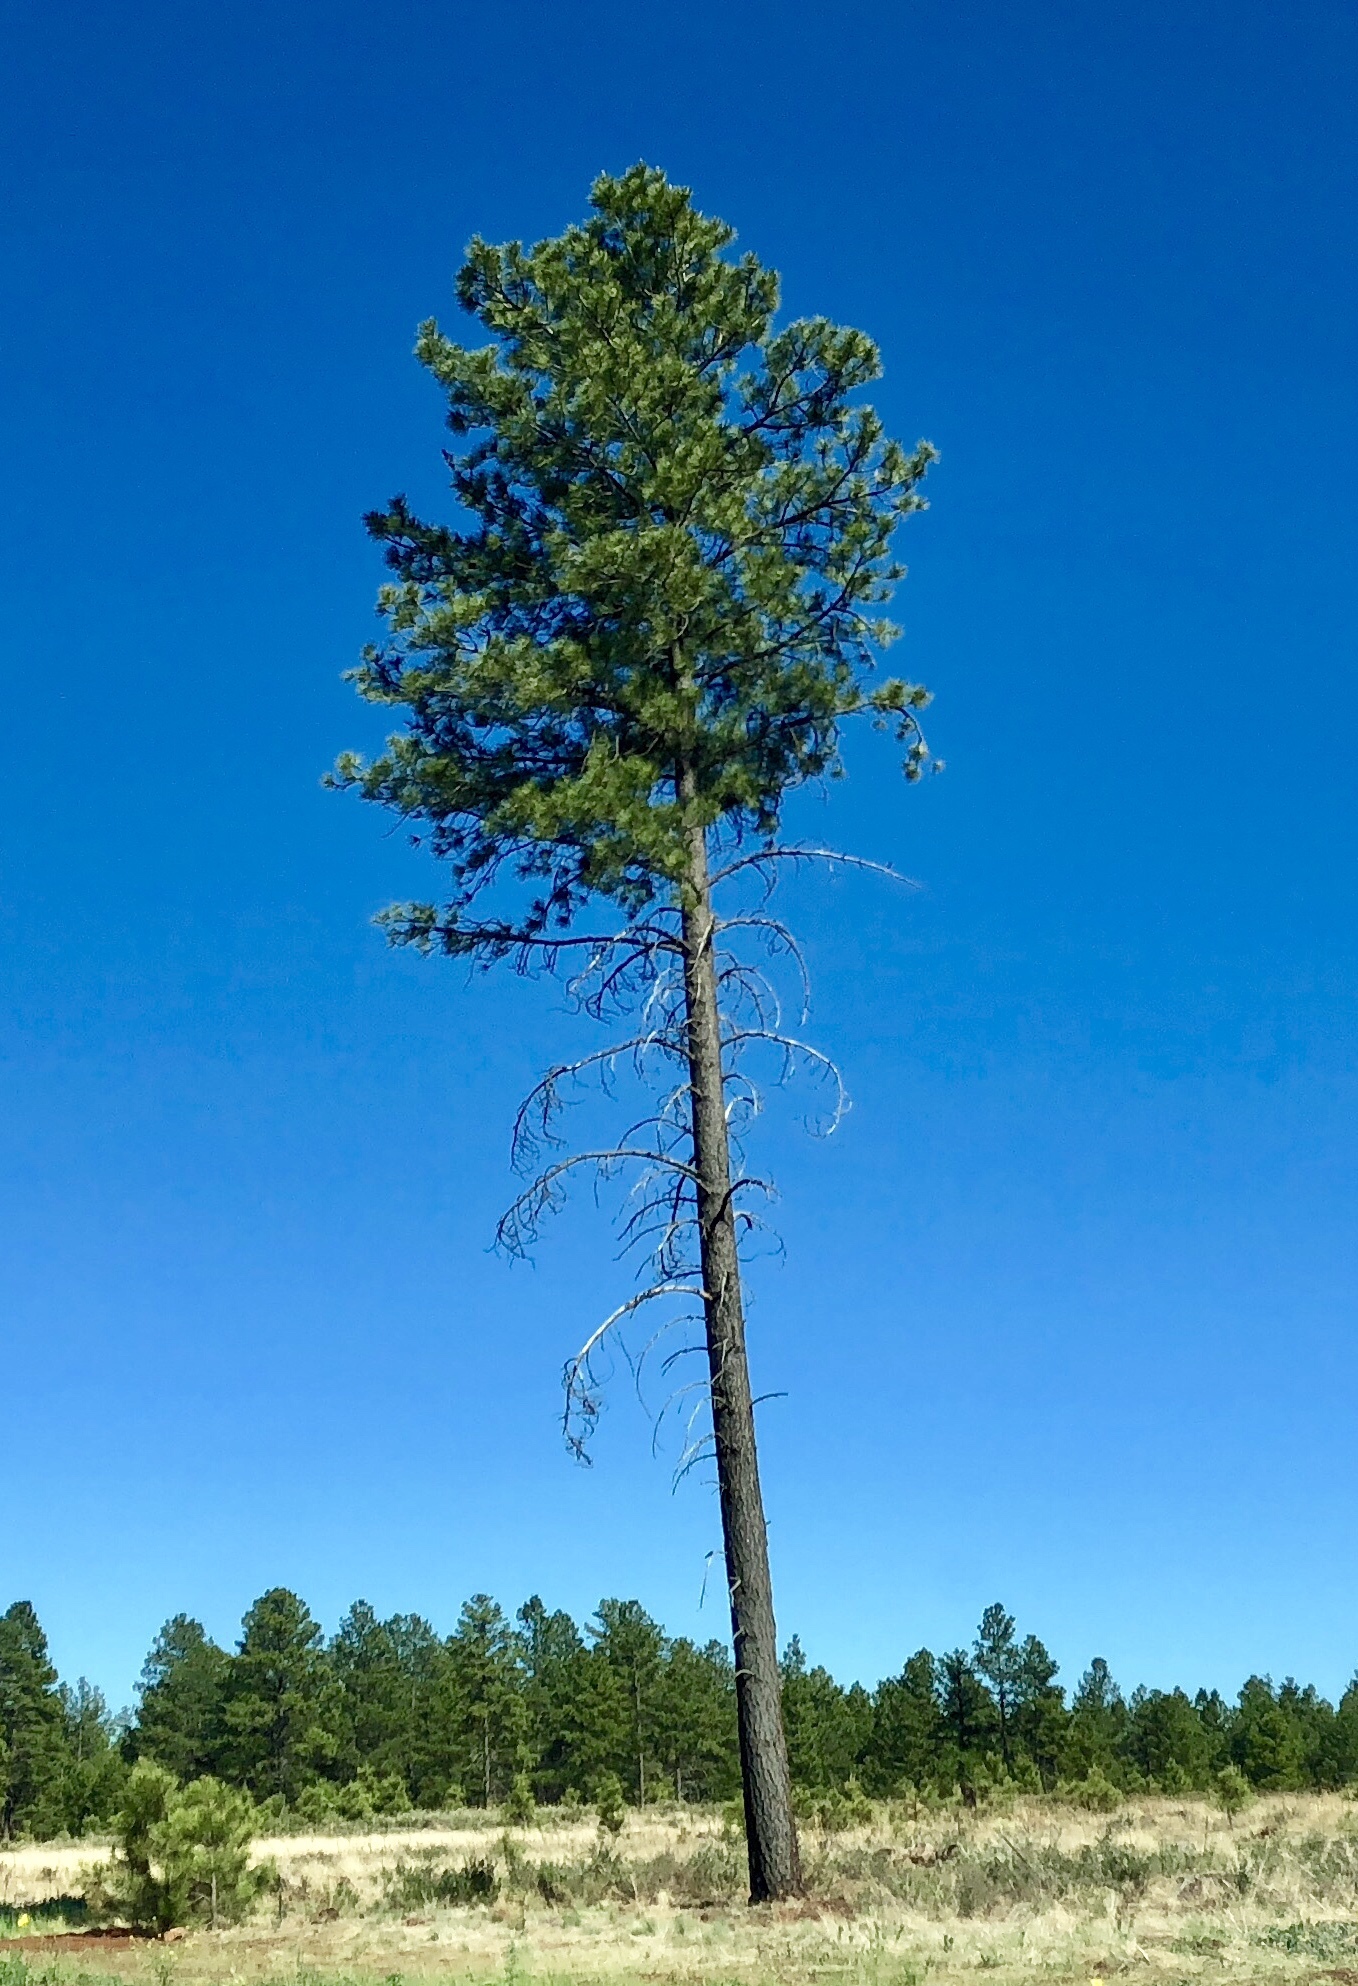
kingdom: Plantae
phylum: Tracheophyta
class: Pinopsida
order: Pinales
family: Pinaceae
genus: Pinus
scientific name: Pinus ponderosa
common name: Western yellow-pine
